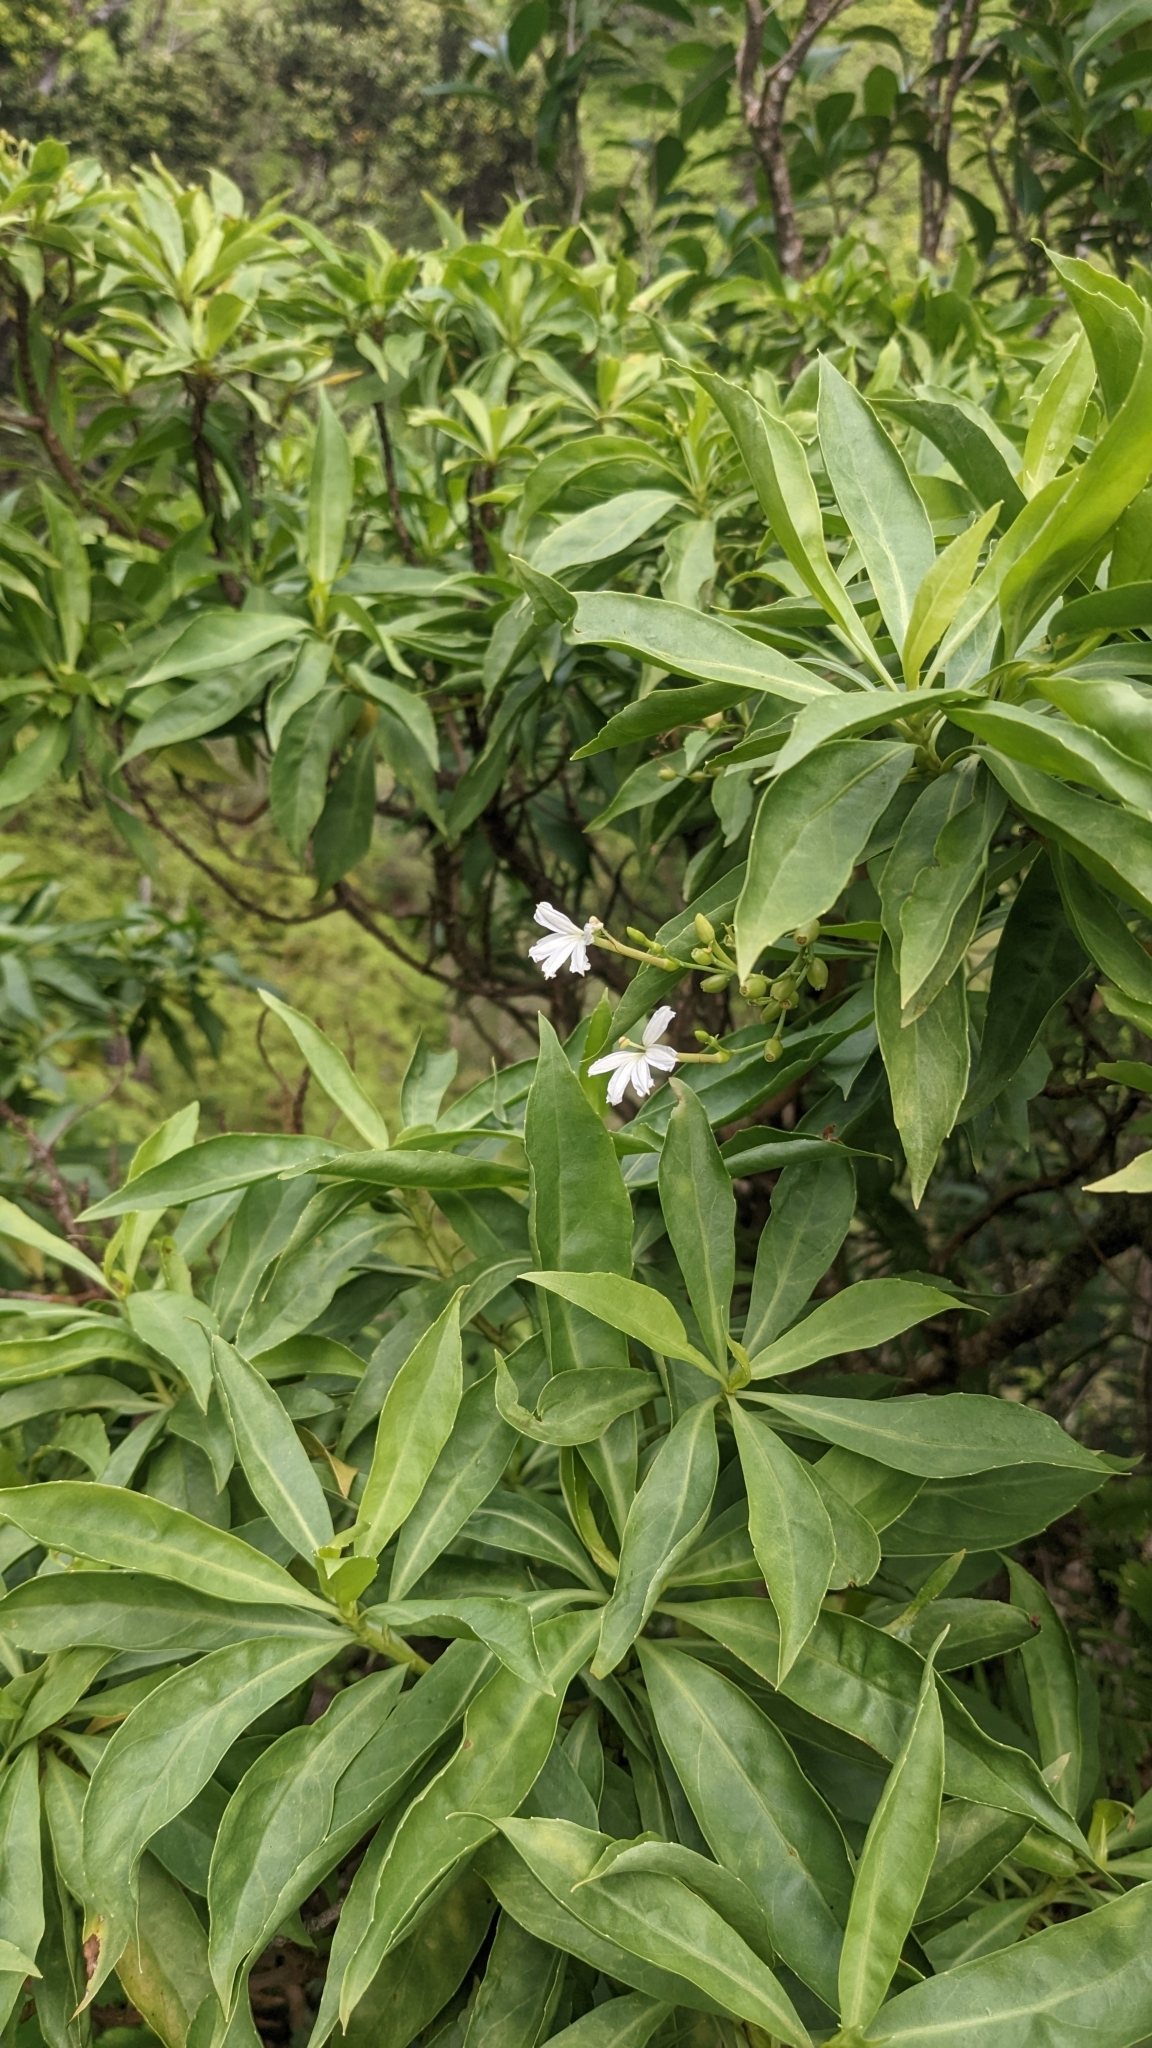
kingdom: Plantae
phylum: Tracheophyta
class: Magnoliopsida
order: Asterales
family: Goodeniaceae
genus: Scaevola
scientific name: Scaevola gaudichaudiana
